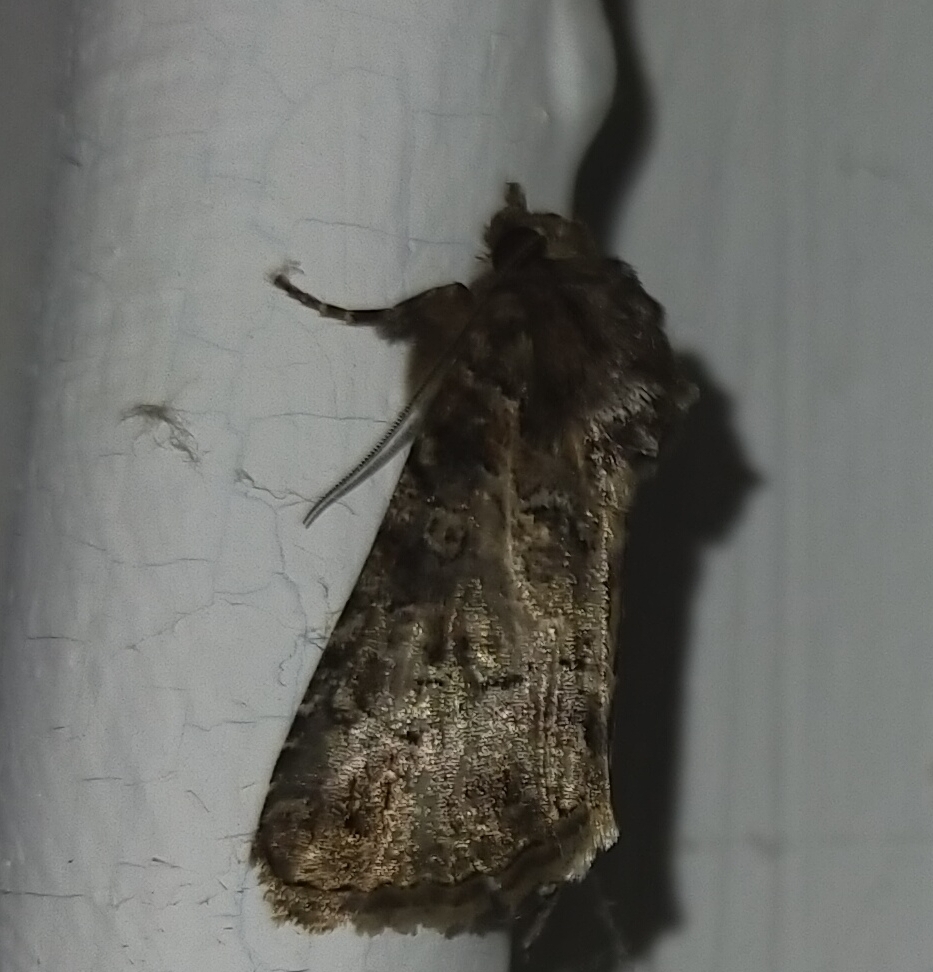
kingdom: Animalia
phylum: Arthropoda
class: Insecta
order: Lepidoptera
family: Noctuidae
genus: Thalpophila
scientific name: Thalpophila matura
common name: Straw underwing
